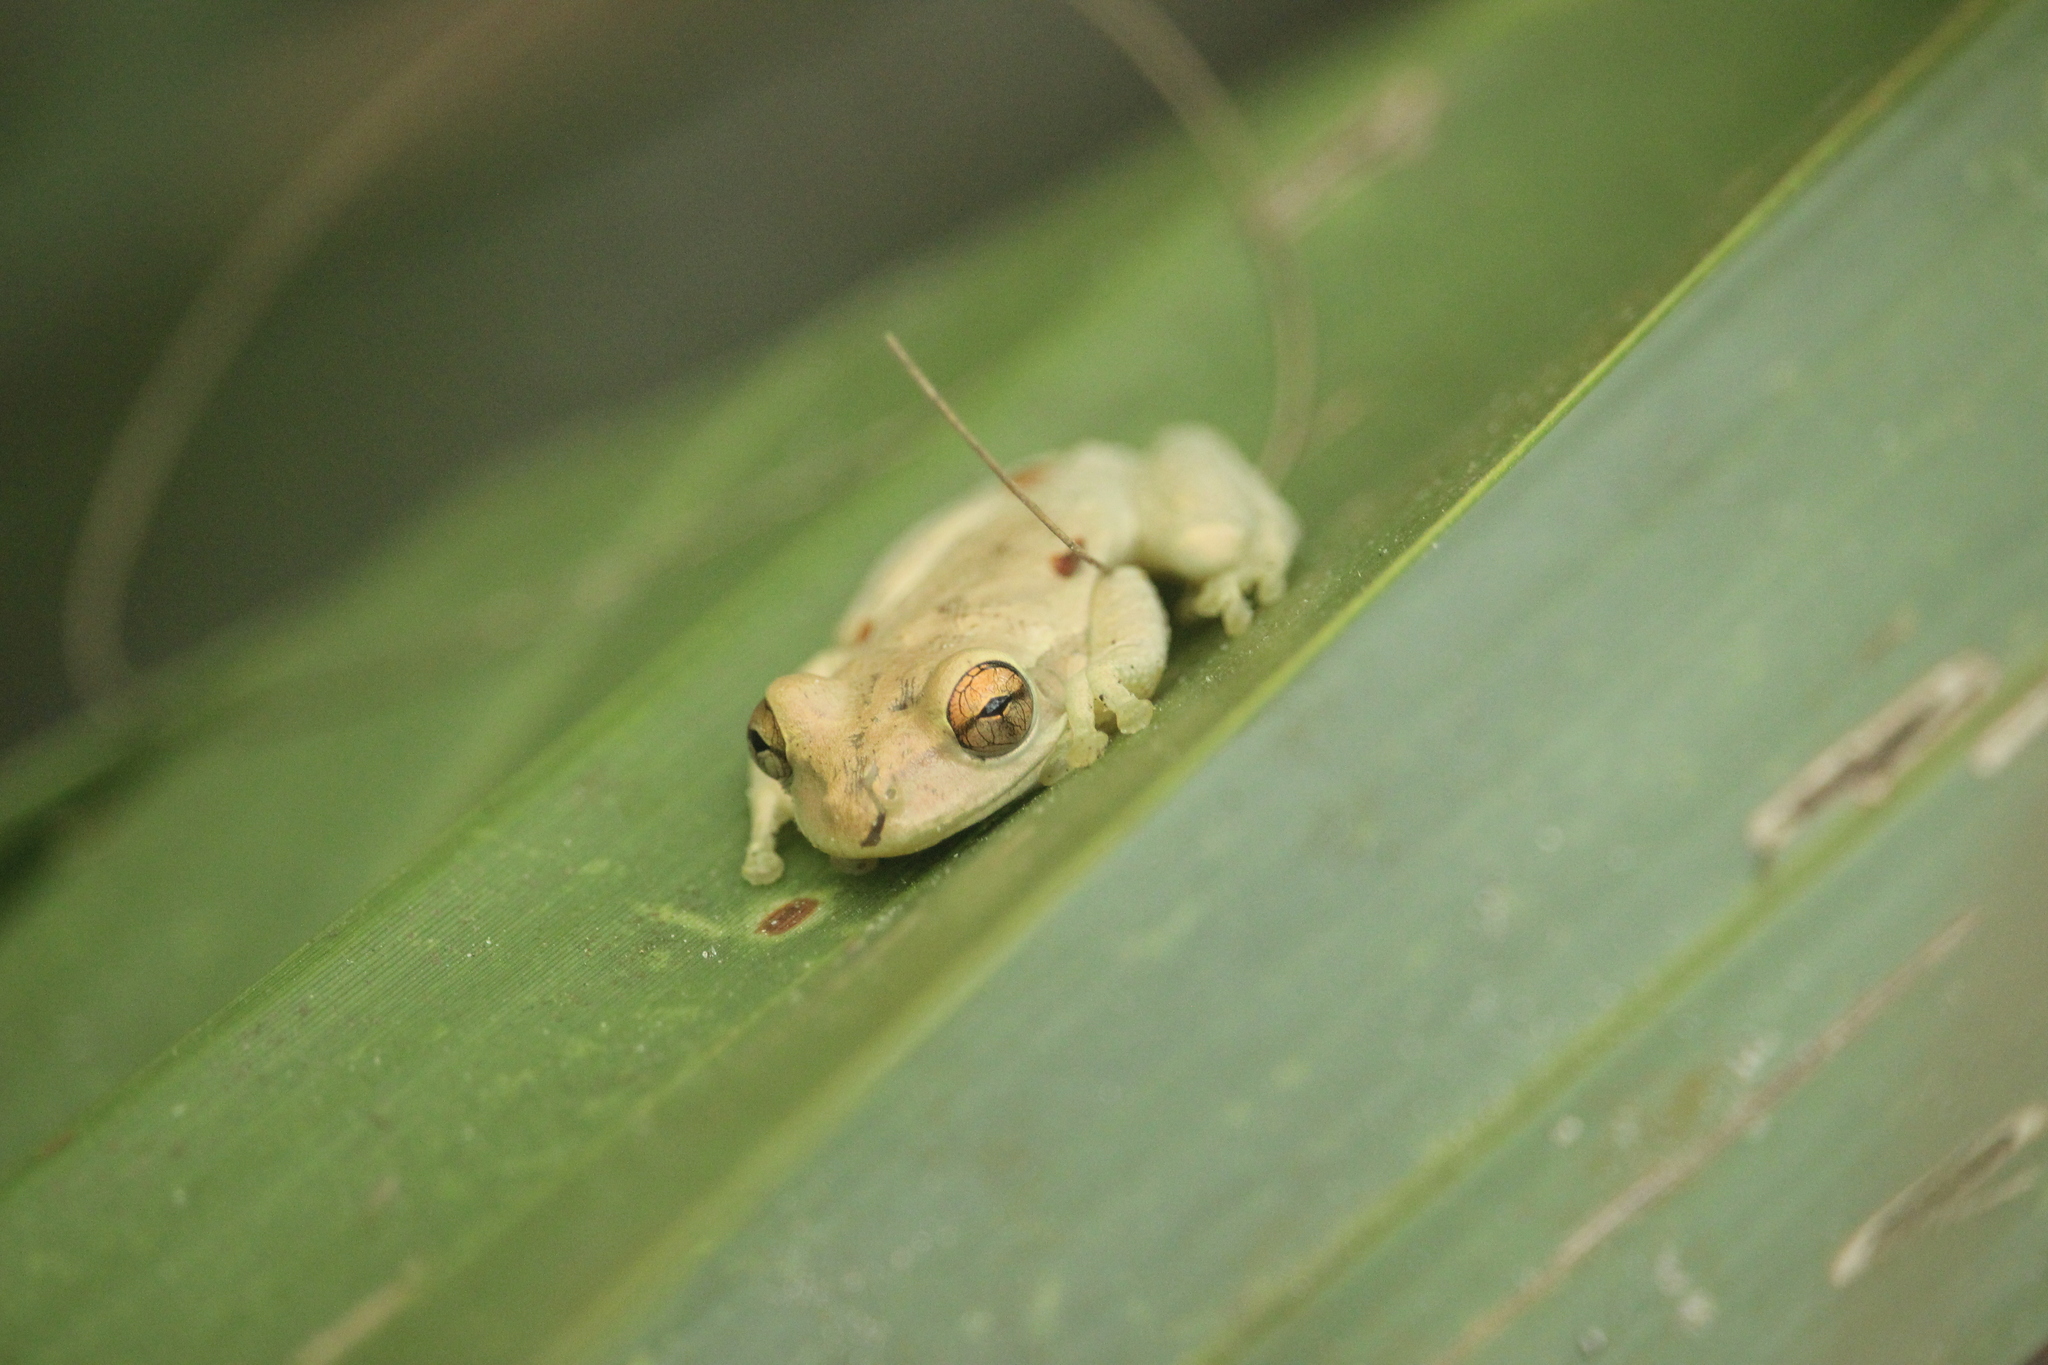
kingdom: Animalia
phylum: Chordata
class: Amphibia
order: Anura
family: Hylidae
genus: Osteopilus
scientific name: Osteopilus septentrionalis
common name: Cuban treefrog
